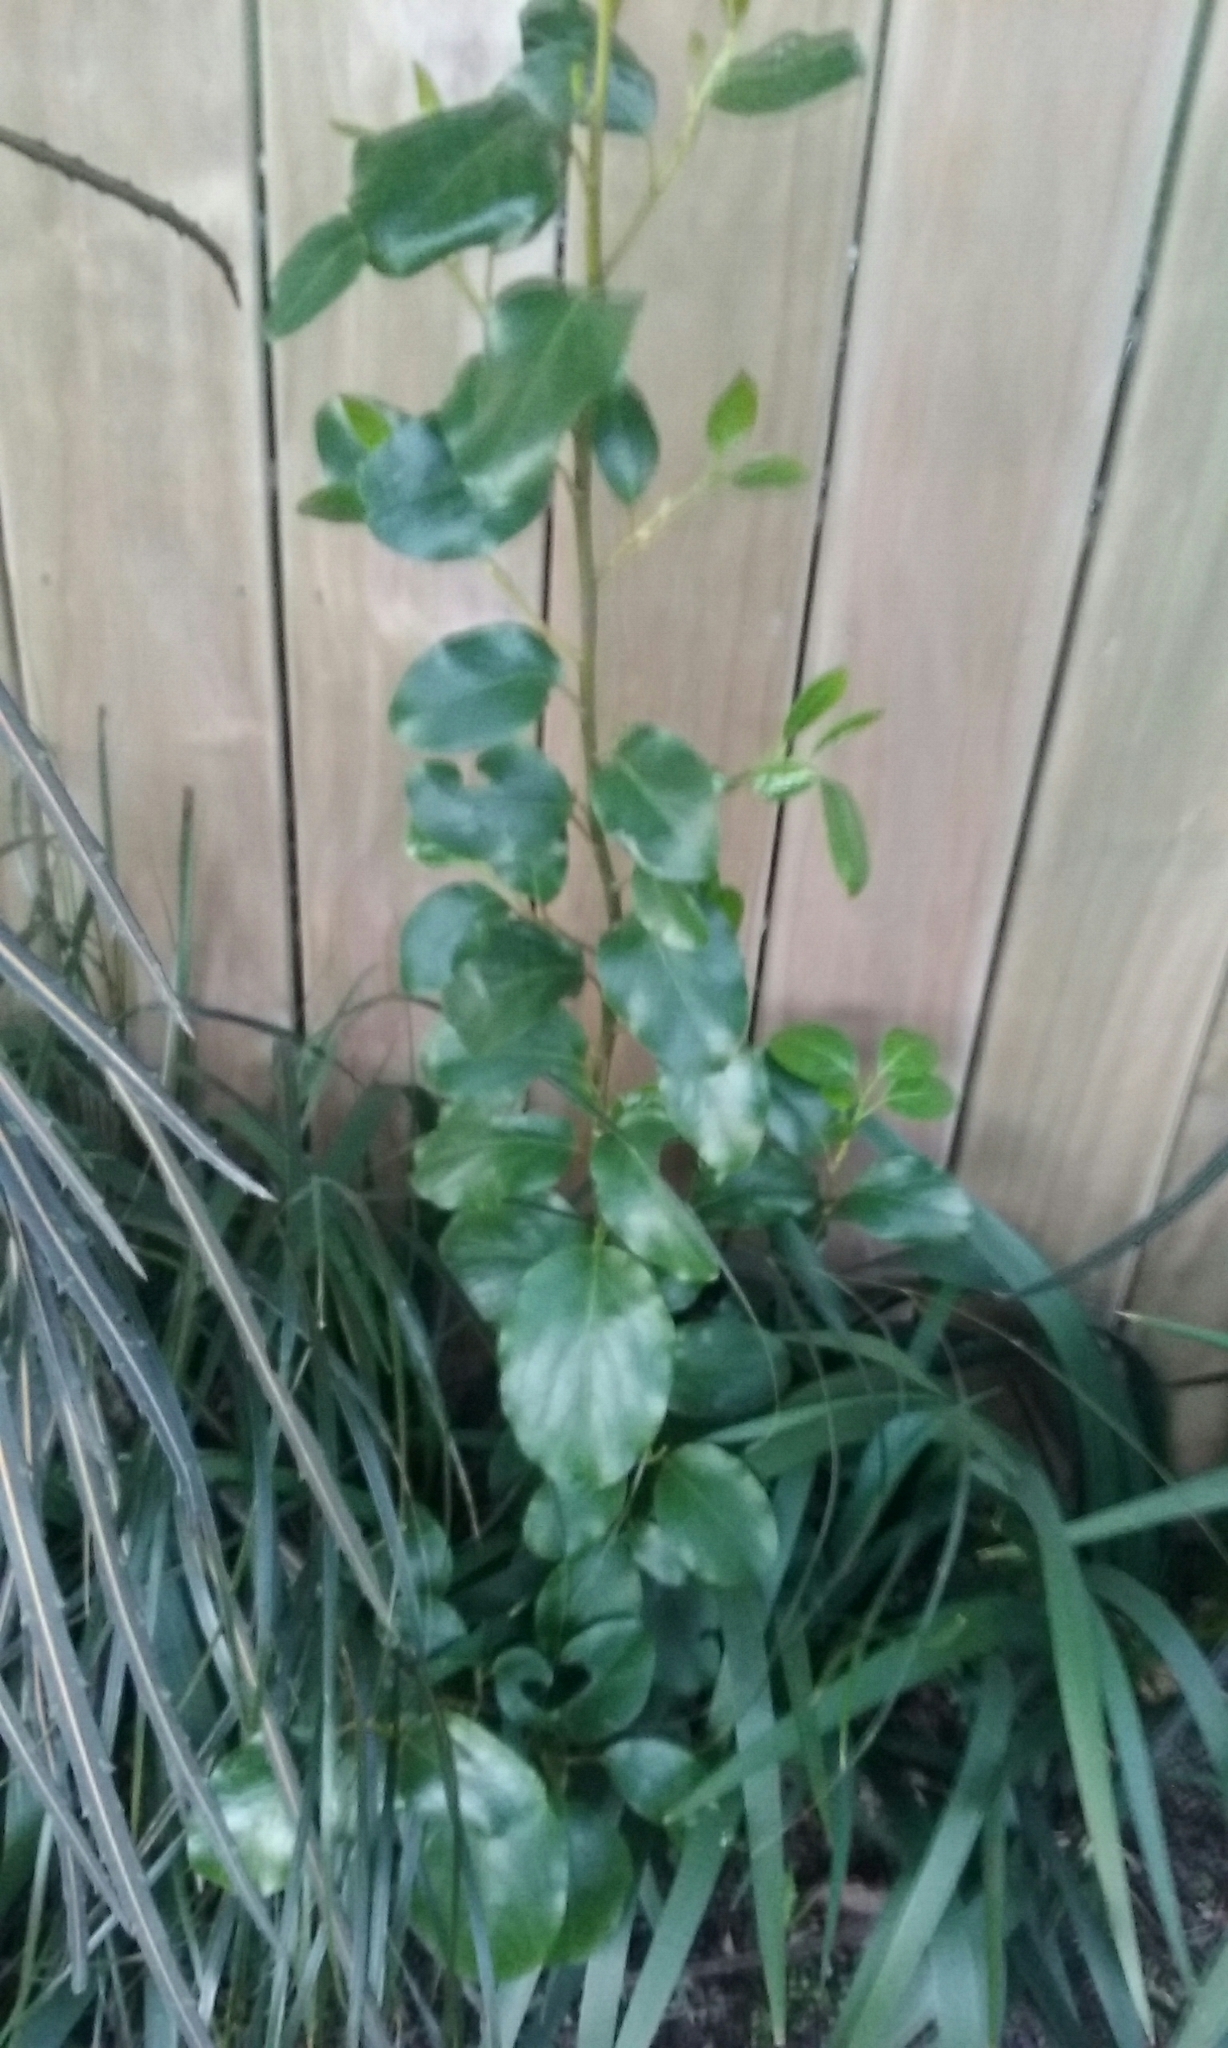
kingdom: Plantae
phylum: Tracheophyta
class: Magnoliopsida
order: Apiales
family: Griseliniaceae
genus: Griselinia
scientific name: Griselinia littoralis
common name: New zealand broadleaf
